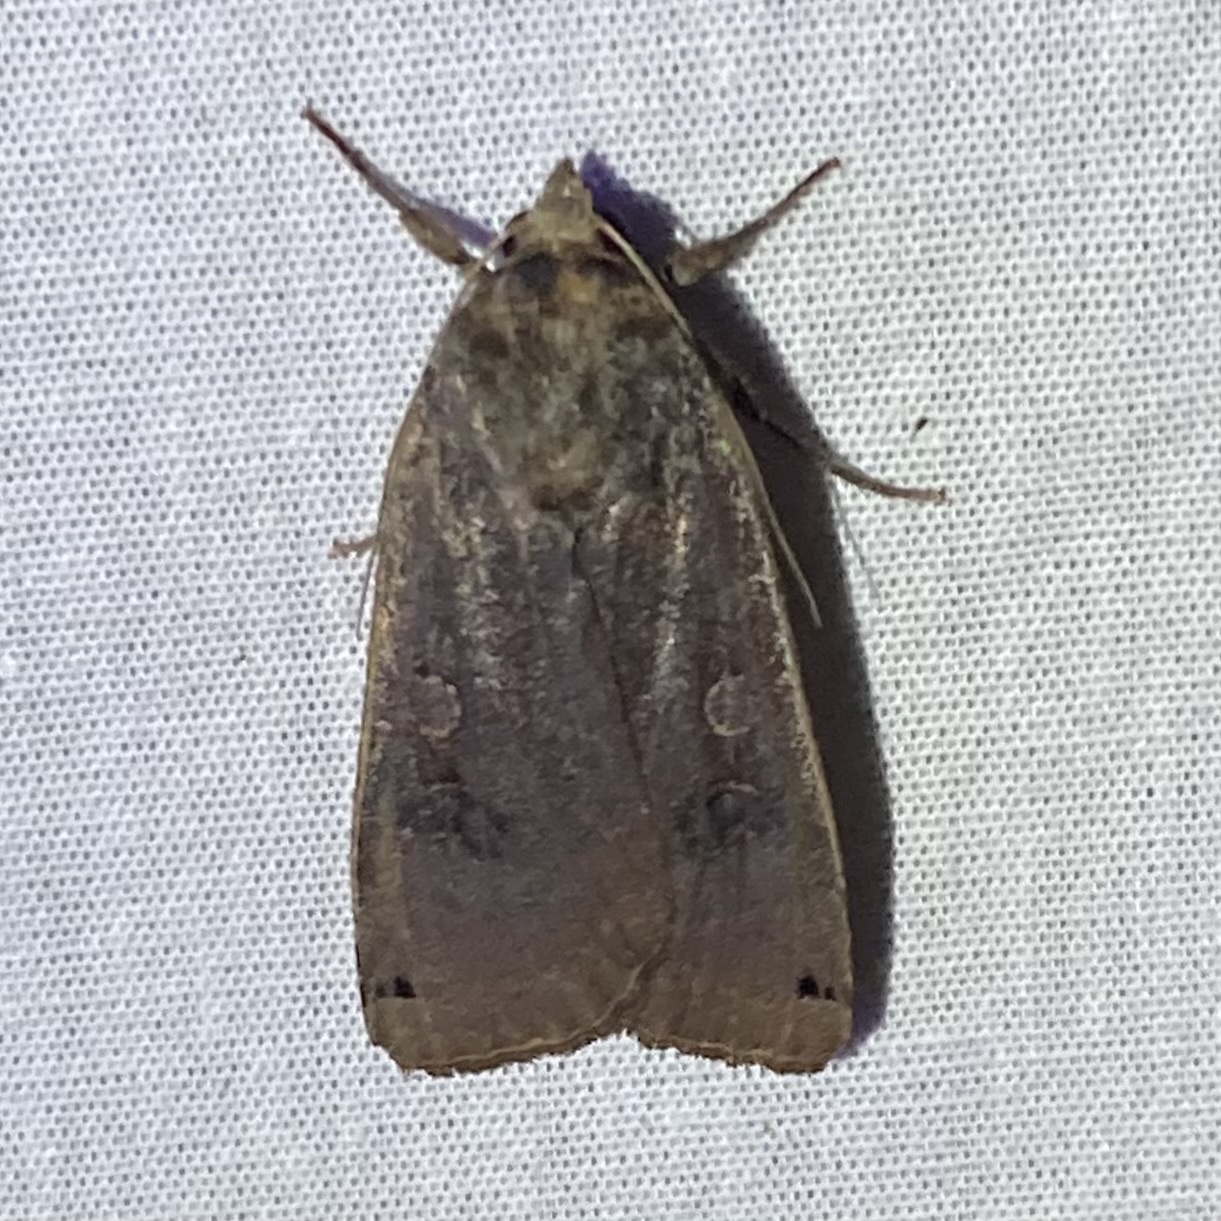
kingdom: Animalia
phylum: Arthropoda
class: Insecta
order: Lepidoptera
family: Noctuidae
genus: Noctua
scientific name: Noctua pronuba
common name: Large yellow underwing
